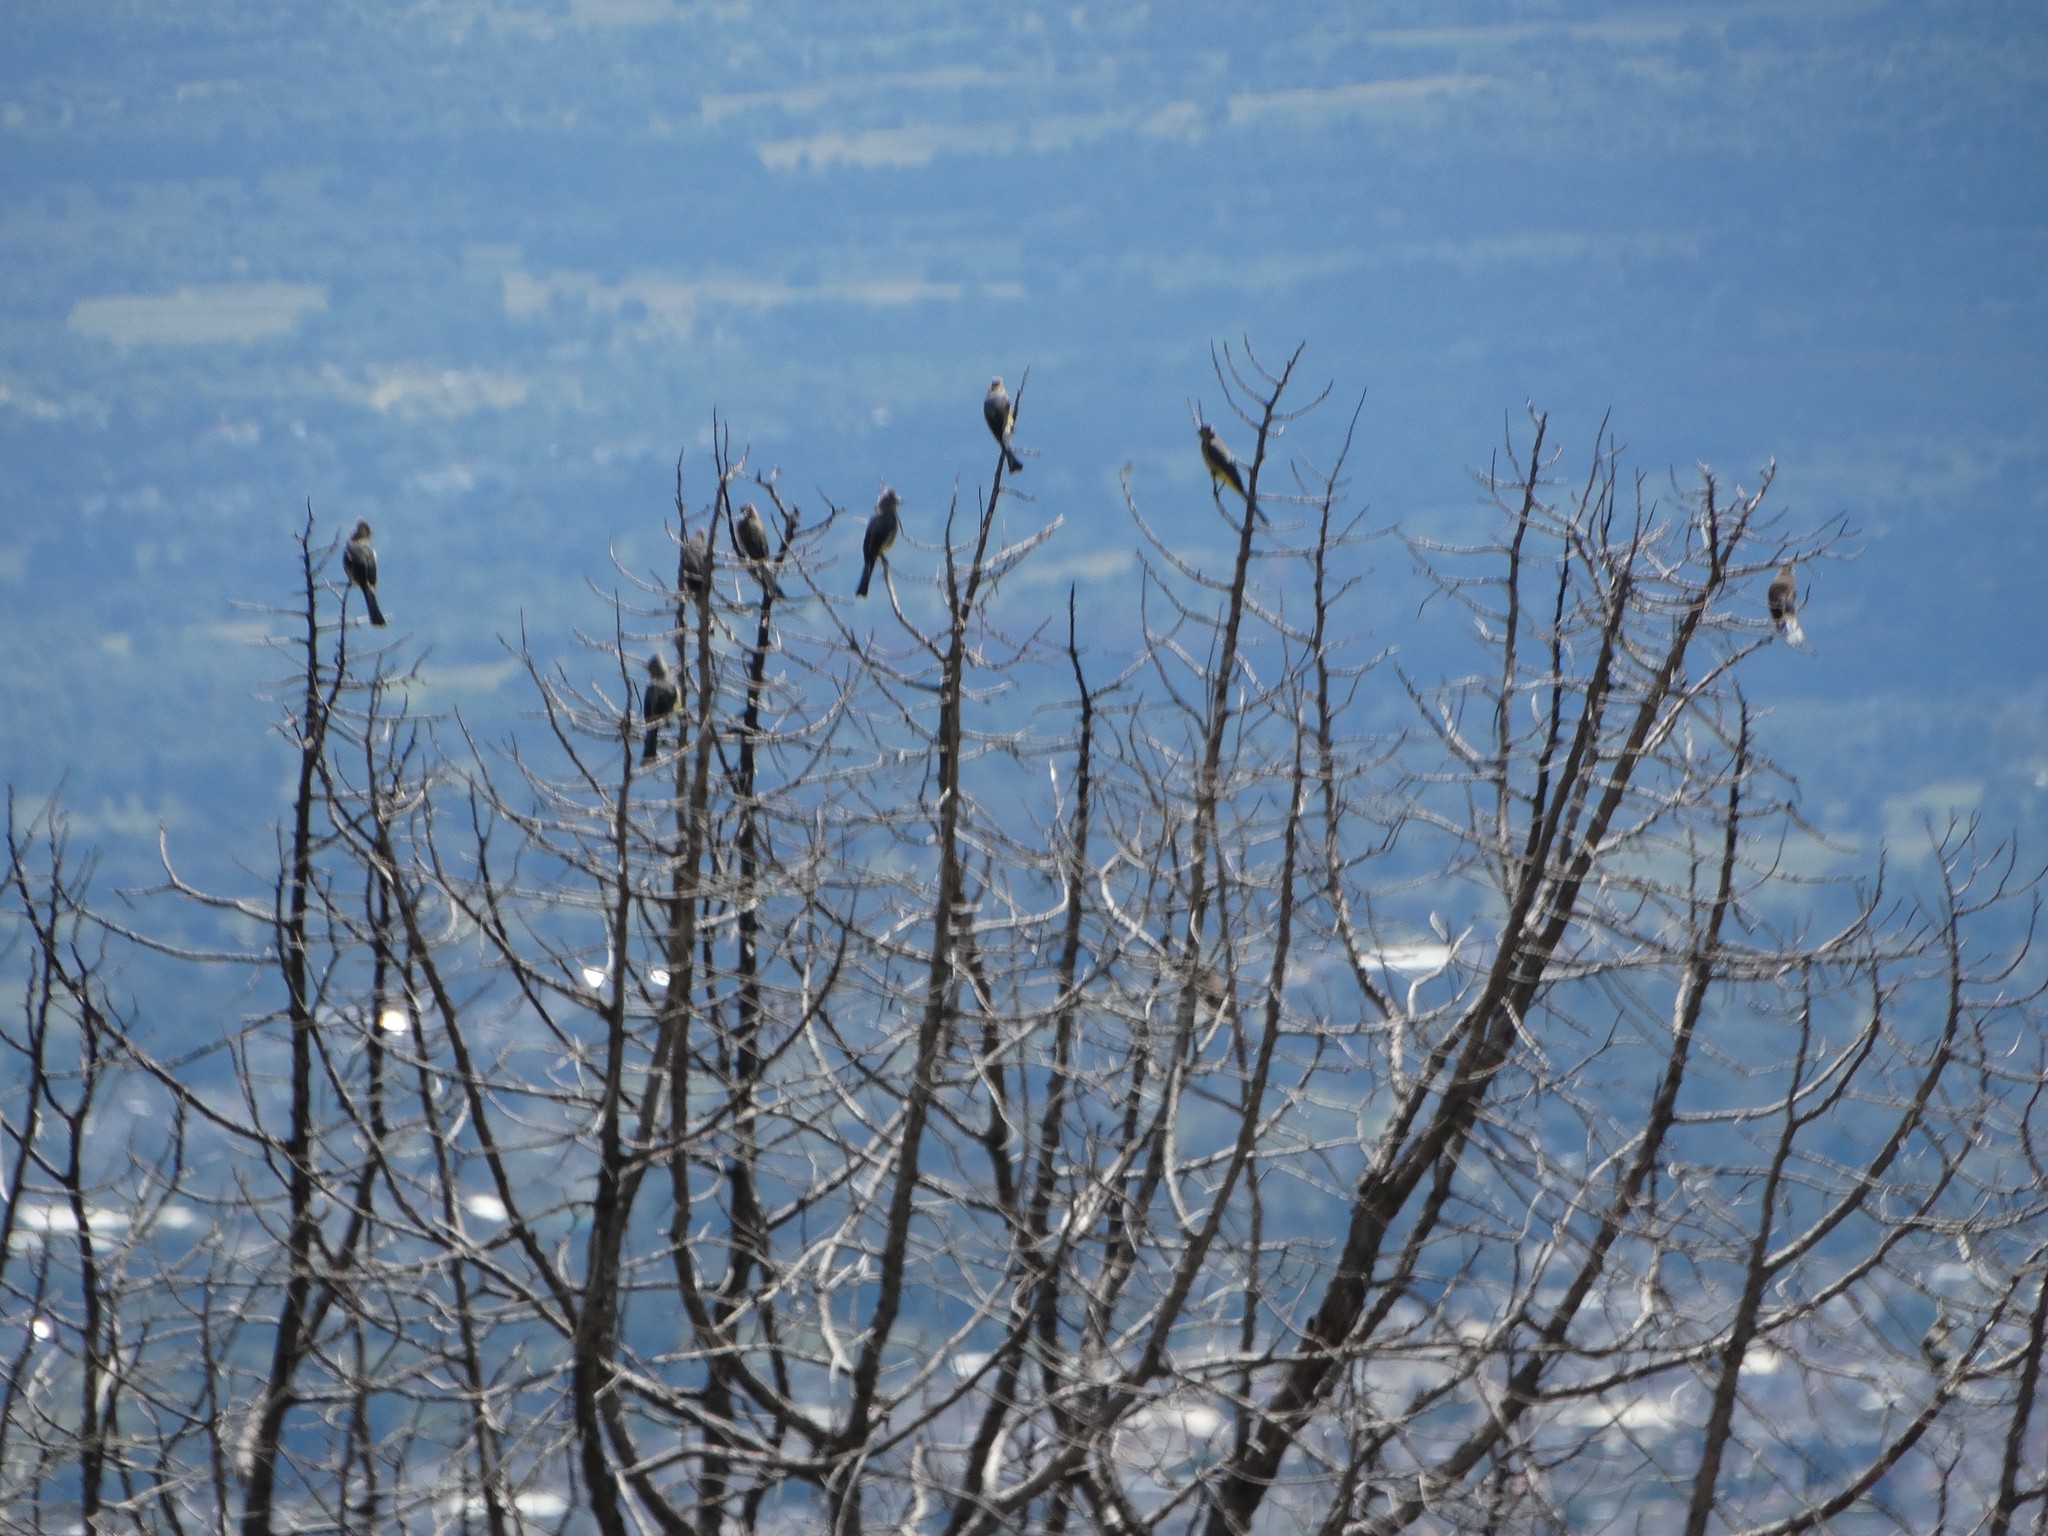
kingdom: Animalia
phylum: Chordata
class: Aves
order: Passeriformes
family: Ptilogonatidae
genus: Ptilogonys
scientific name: Ptilogonys cinereus
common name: Gray silky-flycatcher
